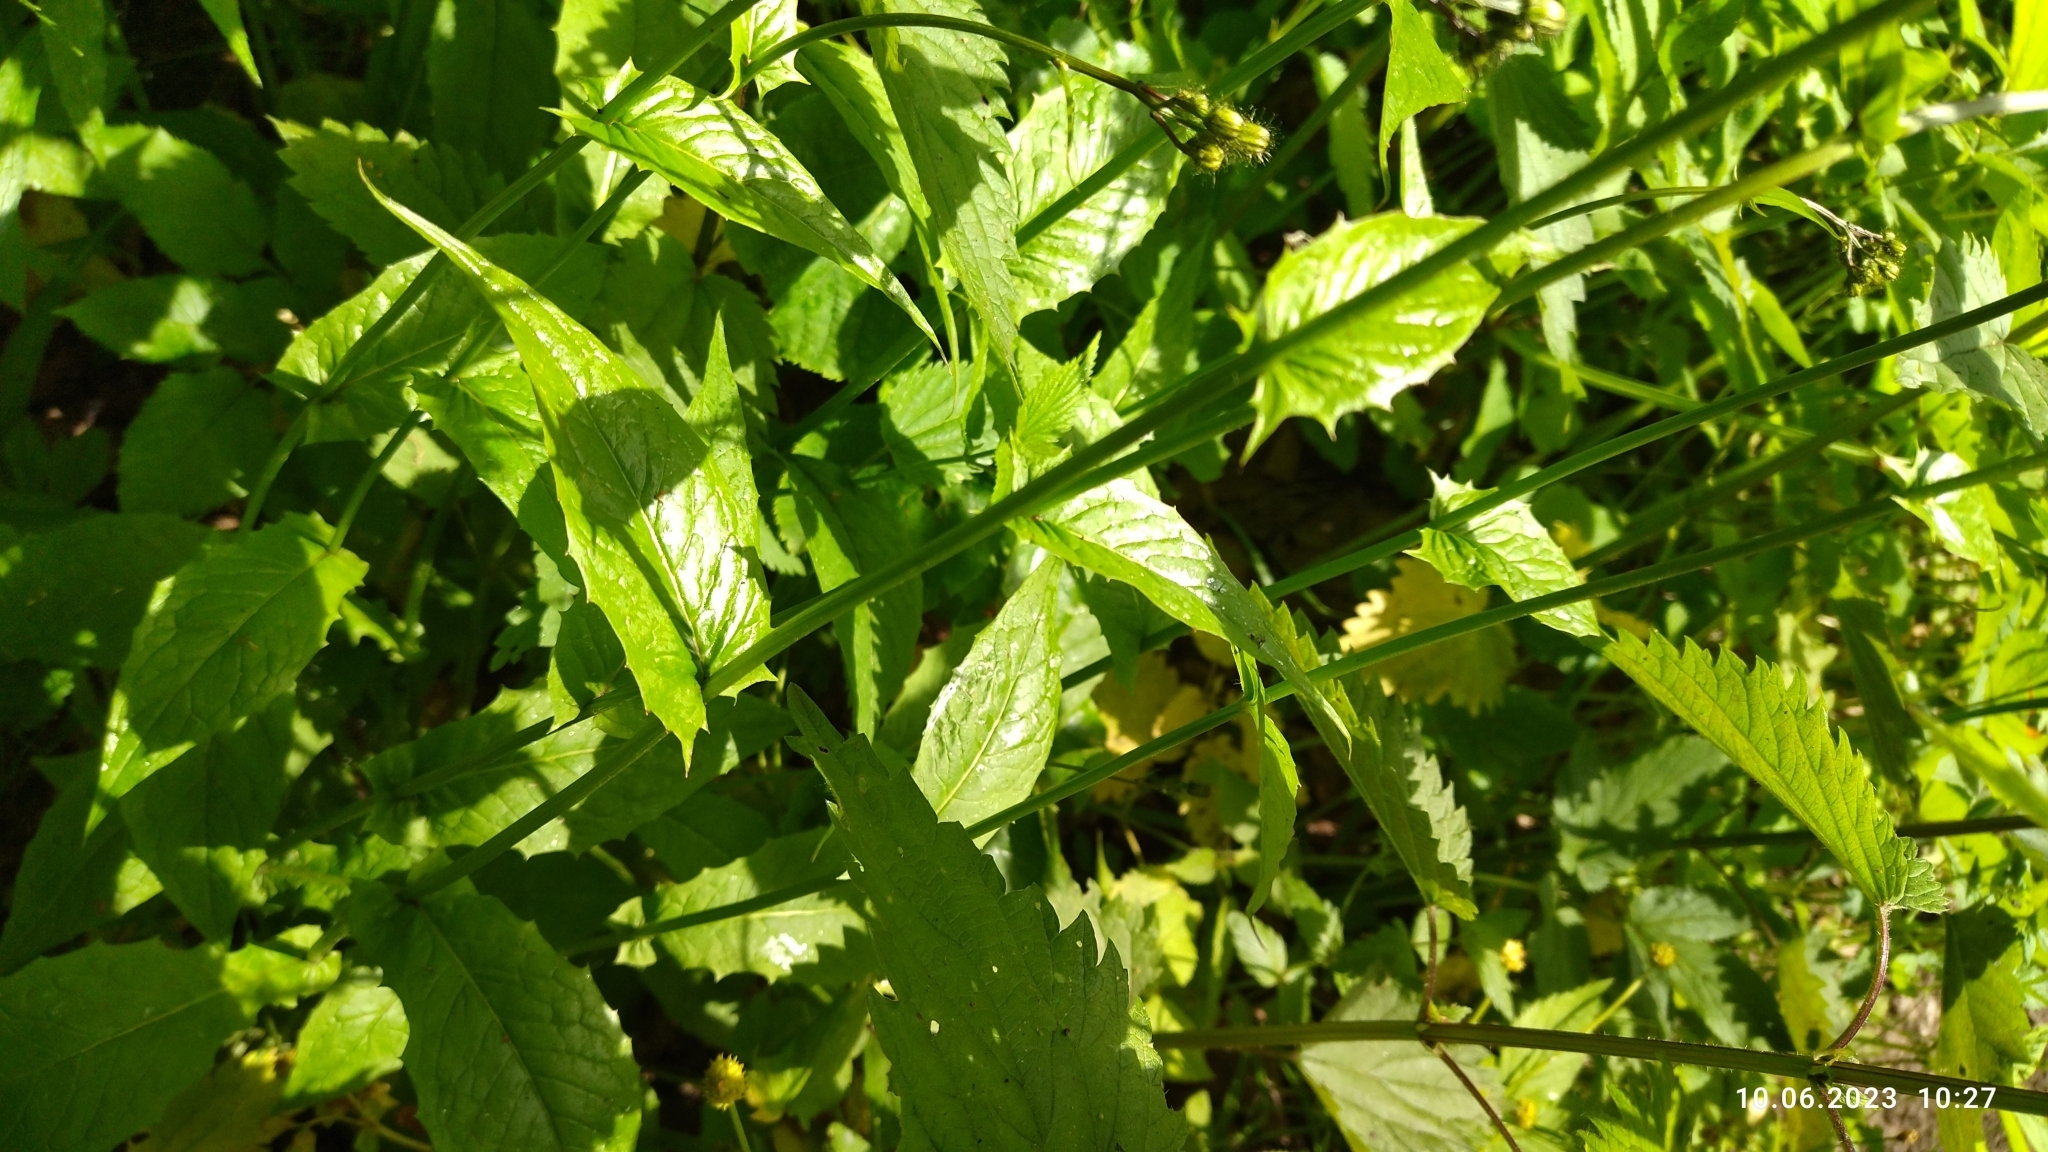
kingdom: Plantae
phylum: Tracheophyta
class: Magnoliopsida
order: Asterales
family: Asteraceae
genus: Crepis
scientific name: Crepis paludosa
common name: Marsh hawk's-beard
